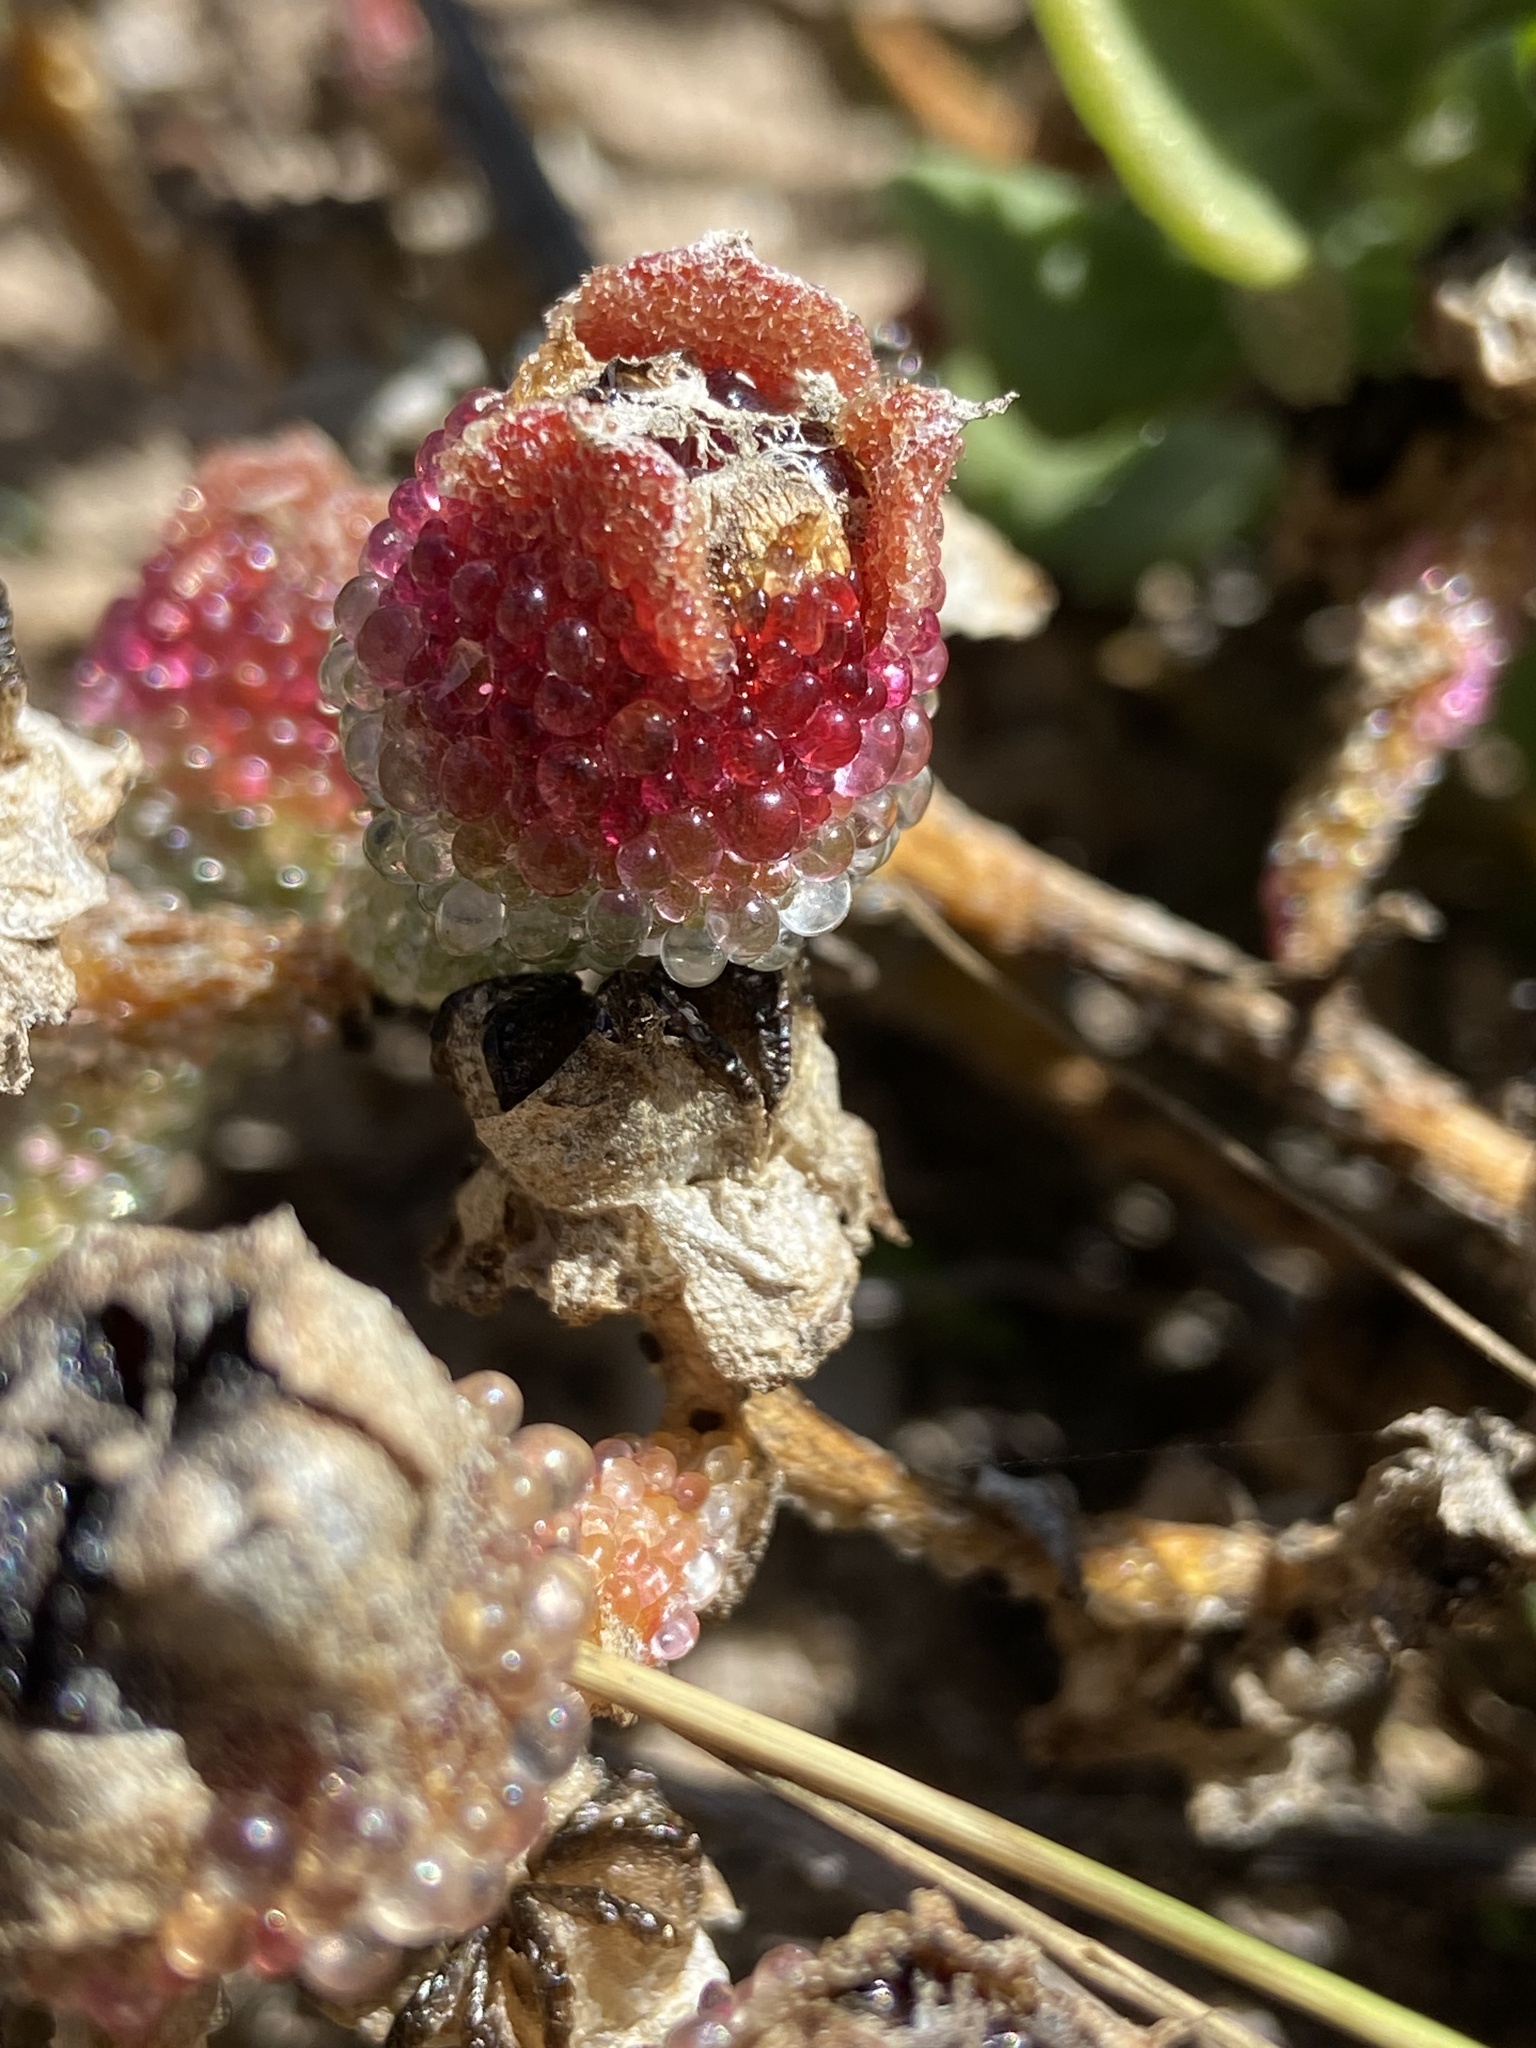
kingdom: Plantae
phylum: Tracheophyta
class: Magnoliopsida
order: Caryophyllales
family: Aizoaceae
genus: Mesembryanthemum
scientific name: Mesembryanthemum crystallinum
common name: Common iceplant
